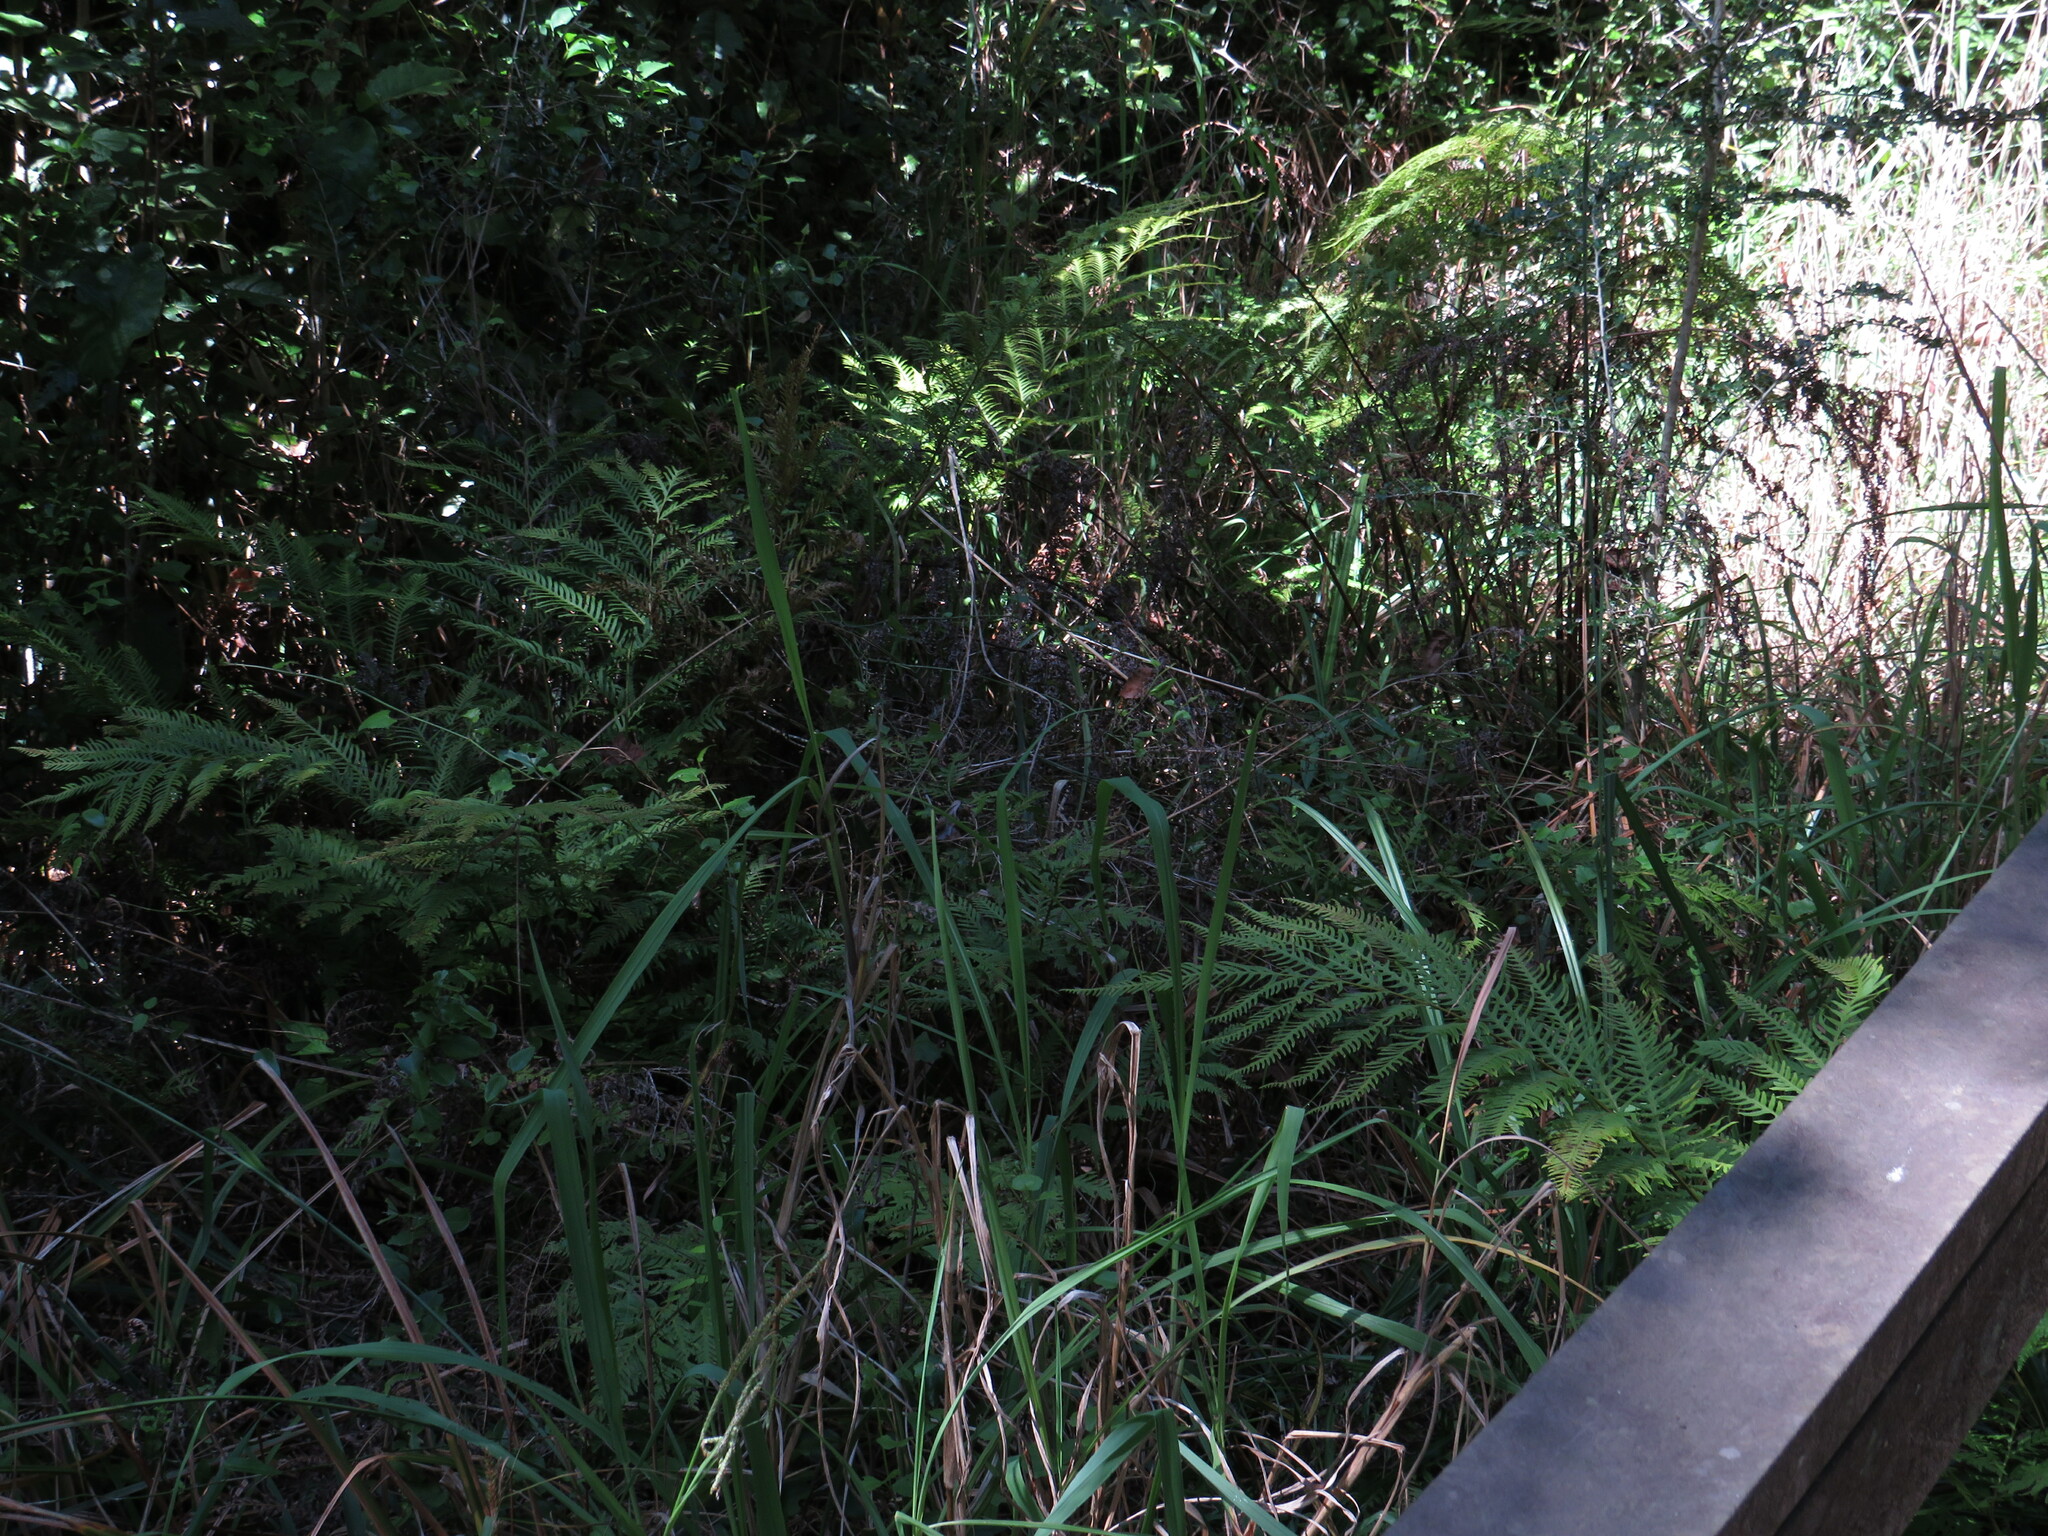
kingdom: Plantae
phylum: Tracheophyta
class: Polypodiopsida
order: Polypodiales
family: Pteridaceae
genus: Pteris
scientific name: Pteris dentata
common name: Toothed brake
